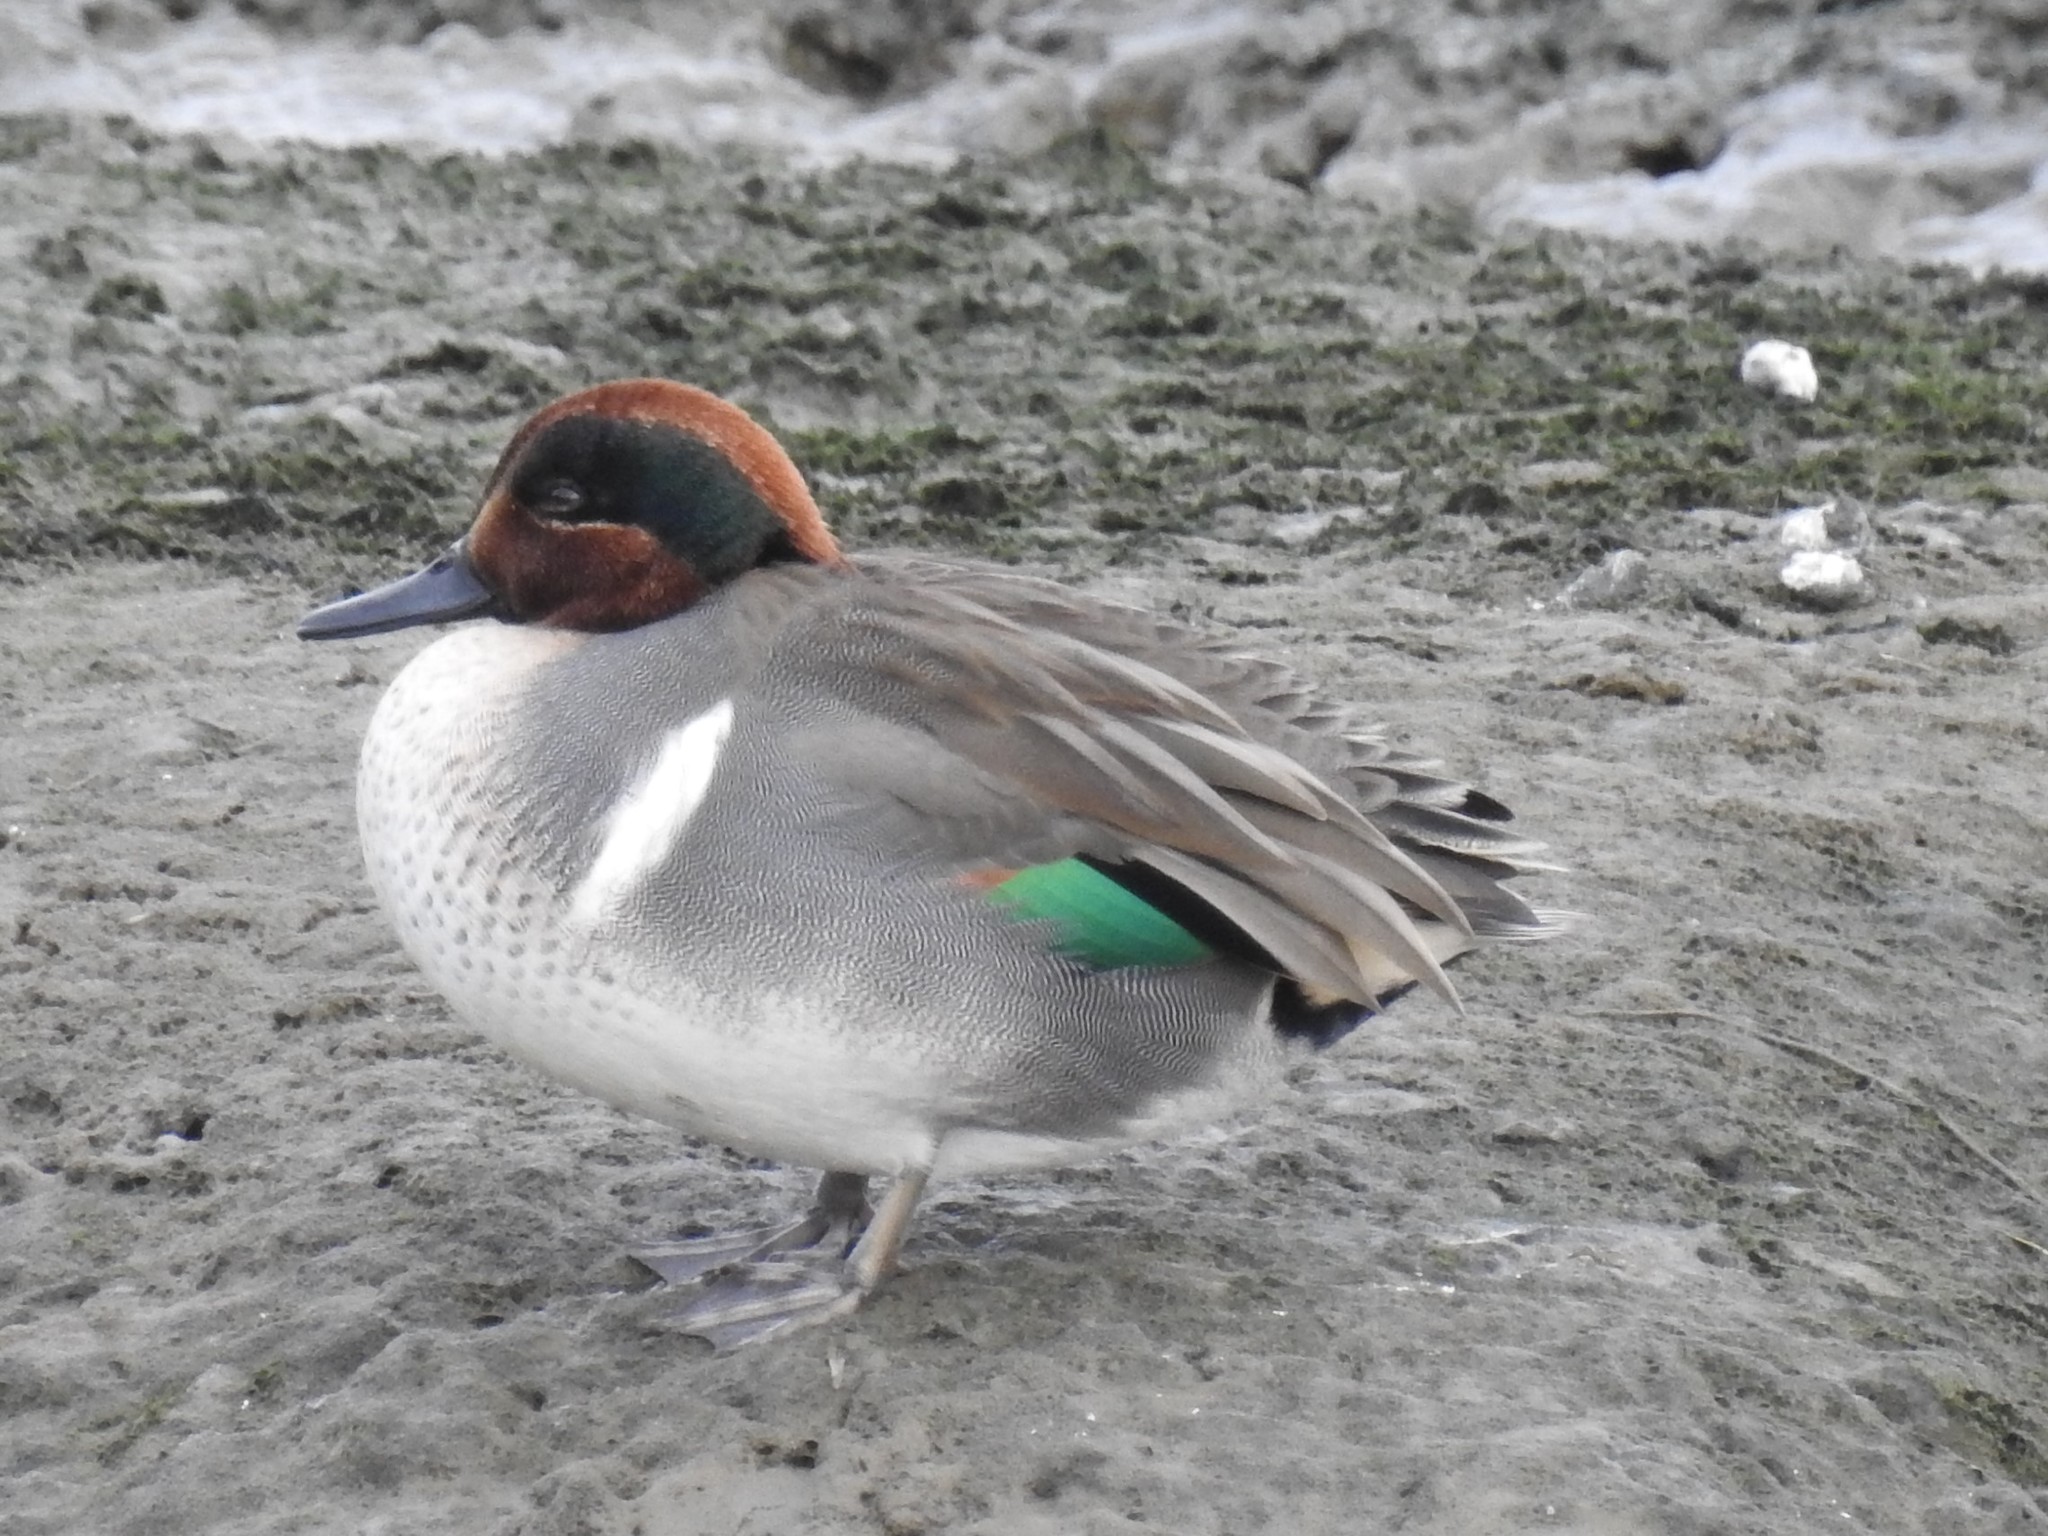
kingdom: Animalia
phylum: Chordata
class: Aves
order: Anseriformes
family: Anatidae
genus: Anas
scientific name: Anas crecca
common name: Eurasian teal
